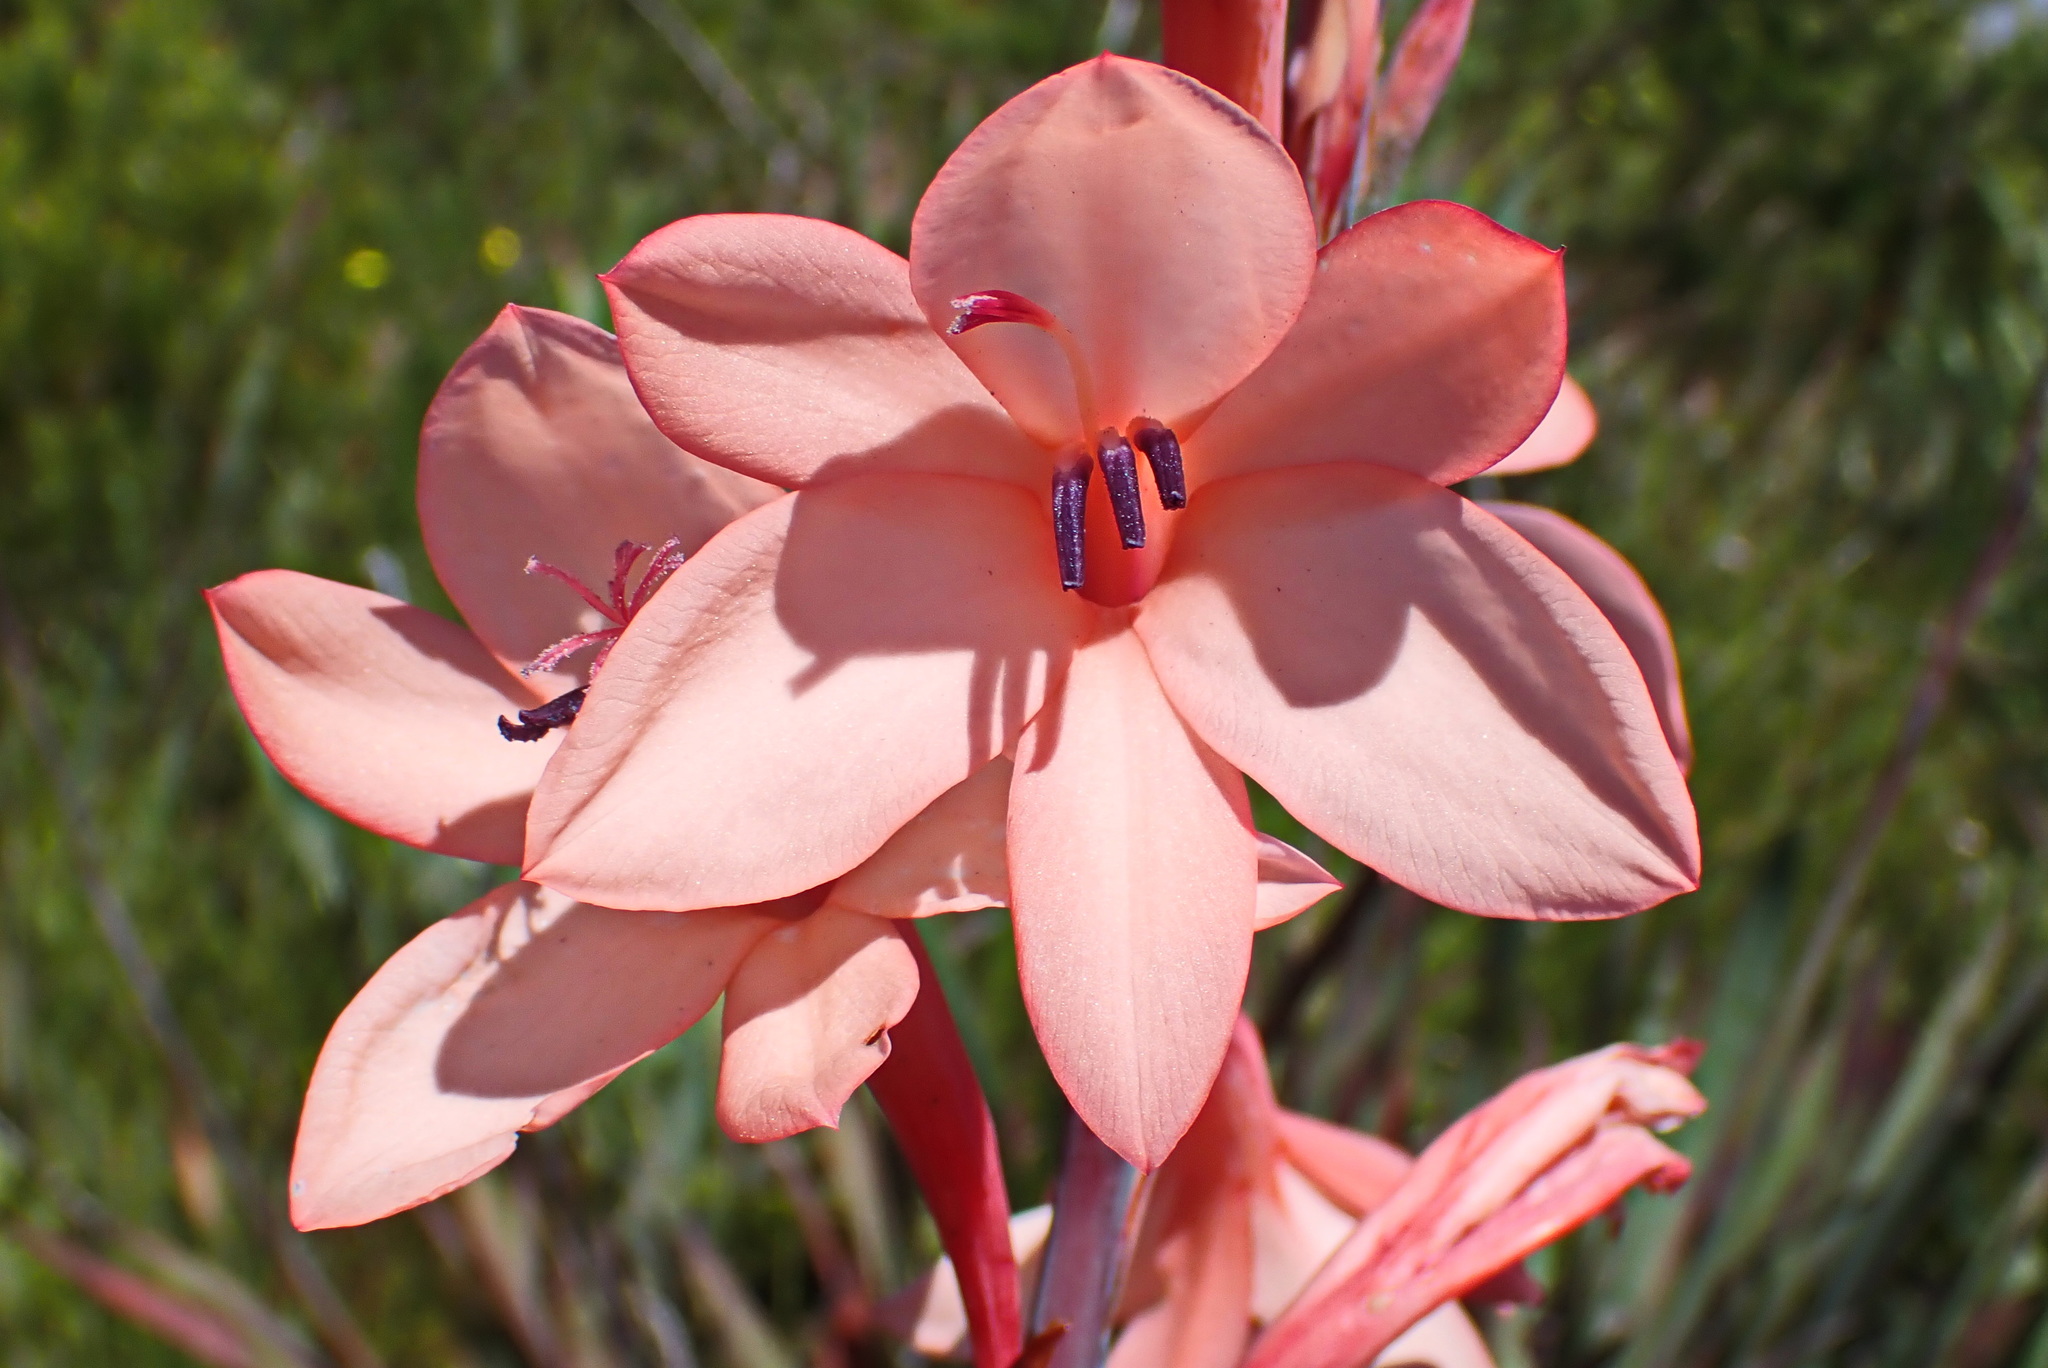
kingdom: Plantae
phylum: Tracheophyta
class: Liliopsida
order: Asparagales
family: Iridaceae
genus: Watsonia
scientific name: Watsonia fourcadei
